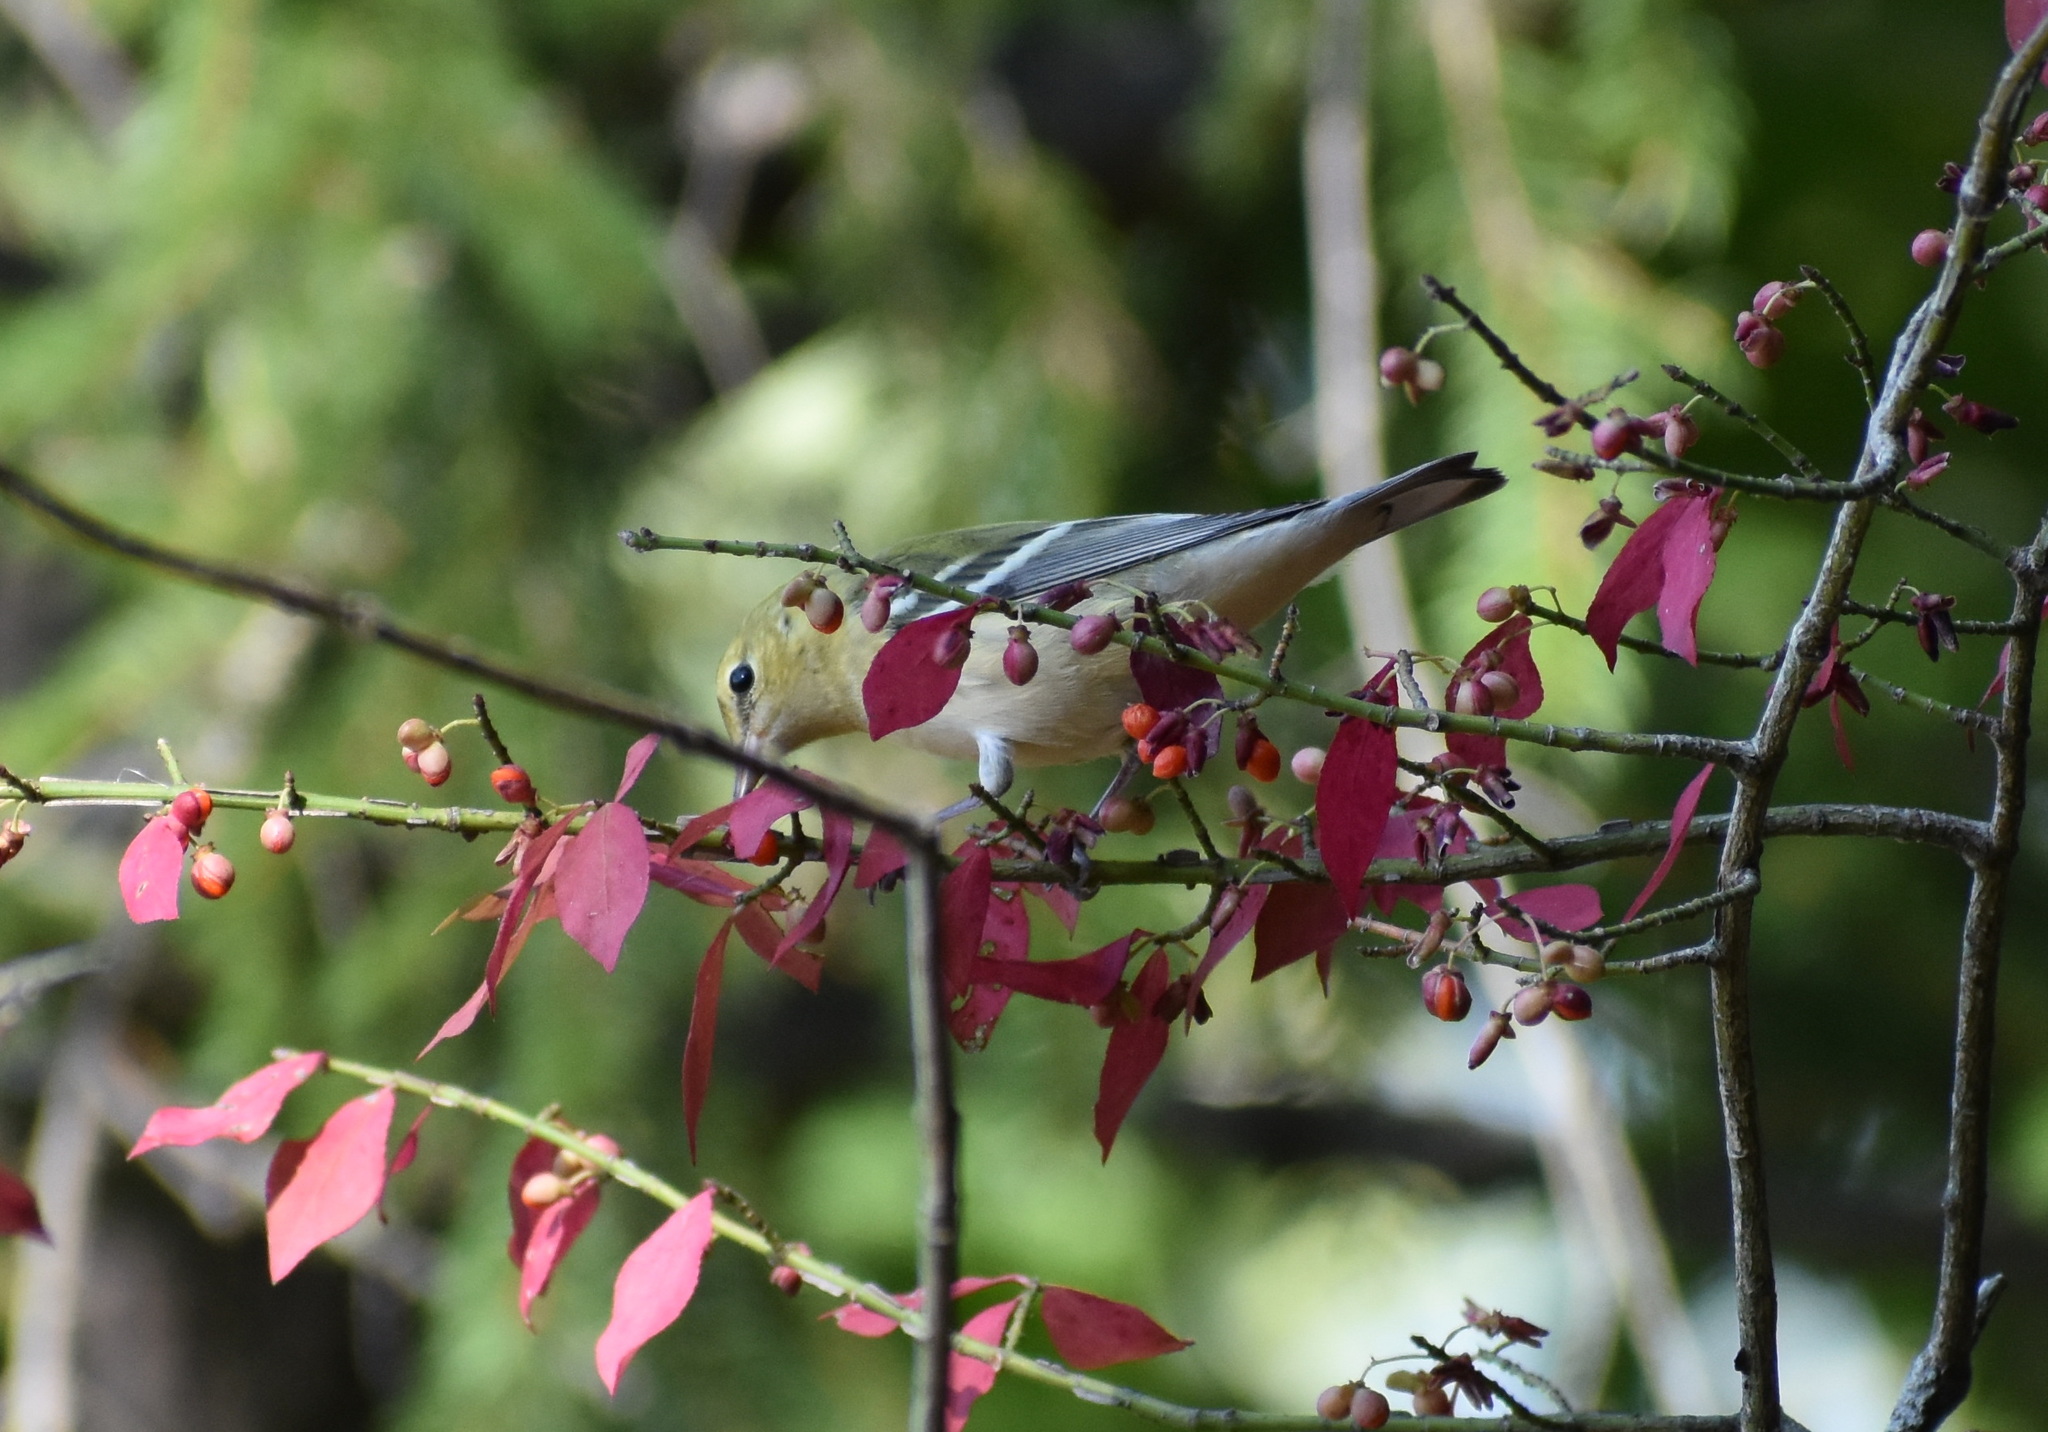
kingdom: Animalia
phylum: Chordata
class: Aves
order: Passeriformes
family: Parulidae
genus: Setophaga
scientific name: Setophaga castanea
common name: Bay-breasted warbler
